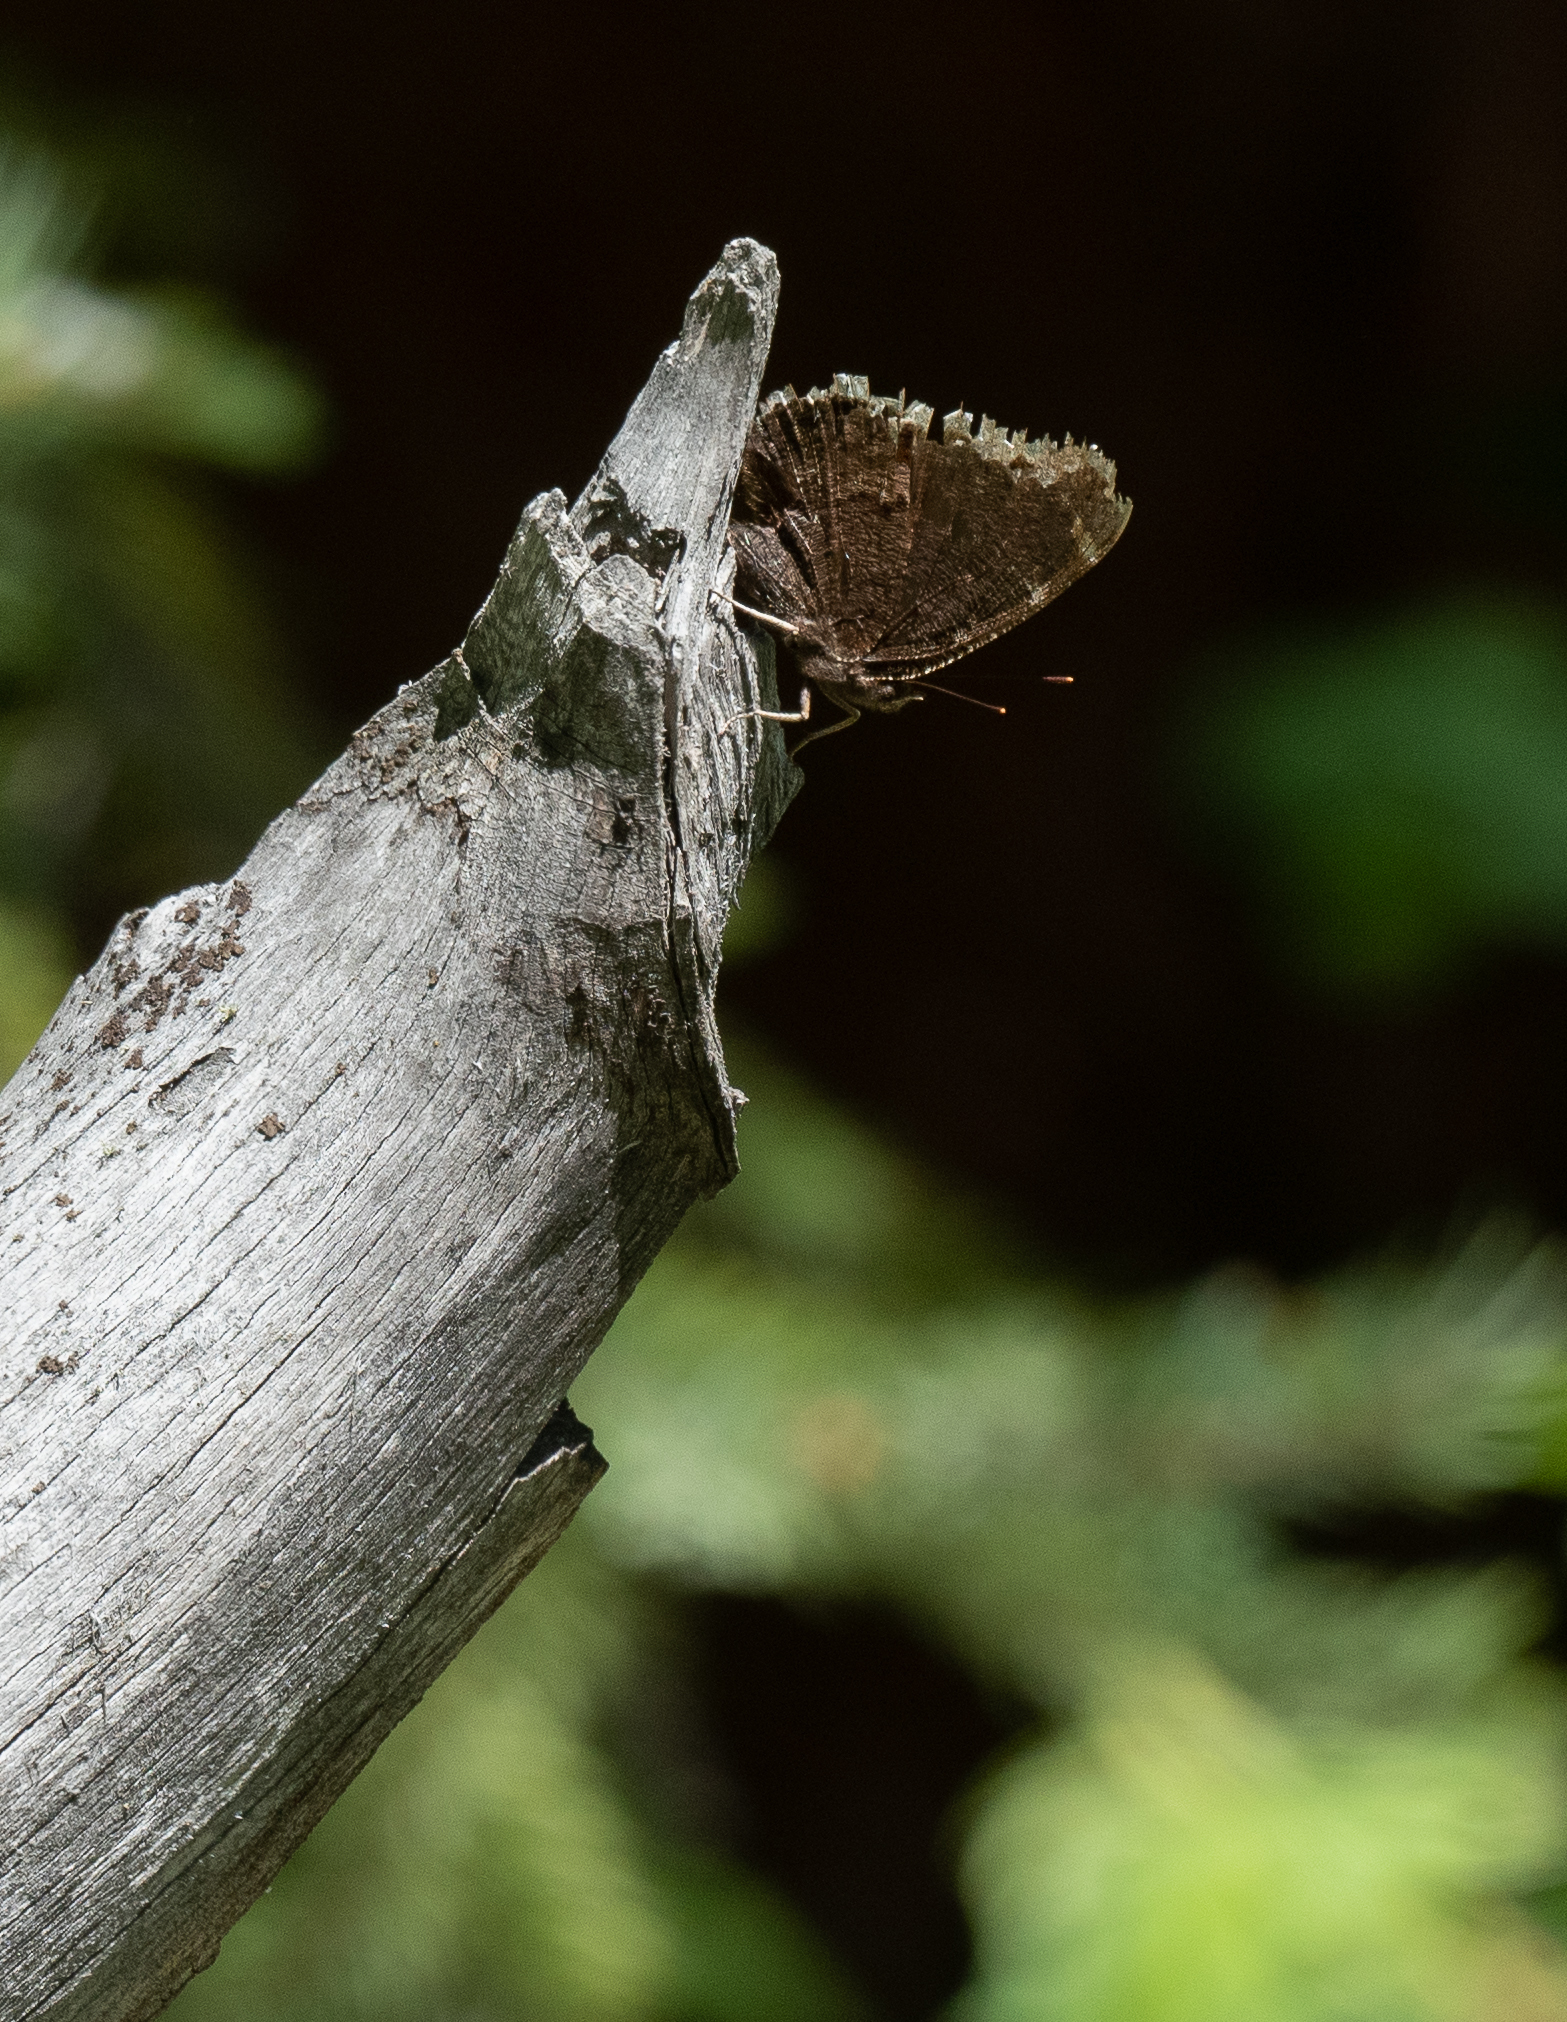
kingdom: Animalia
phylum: Arthropoda
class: Insecta
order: Lepidoptera
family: Nymphalidae
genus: Nymphalis
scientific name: Nymphalis antiopa
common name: Camberwell beauty
